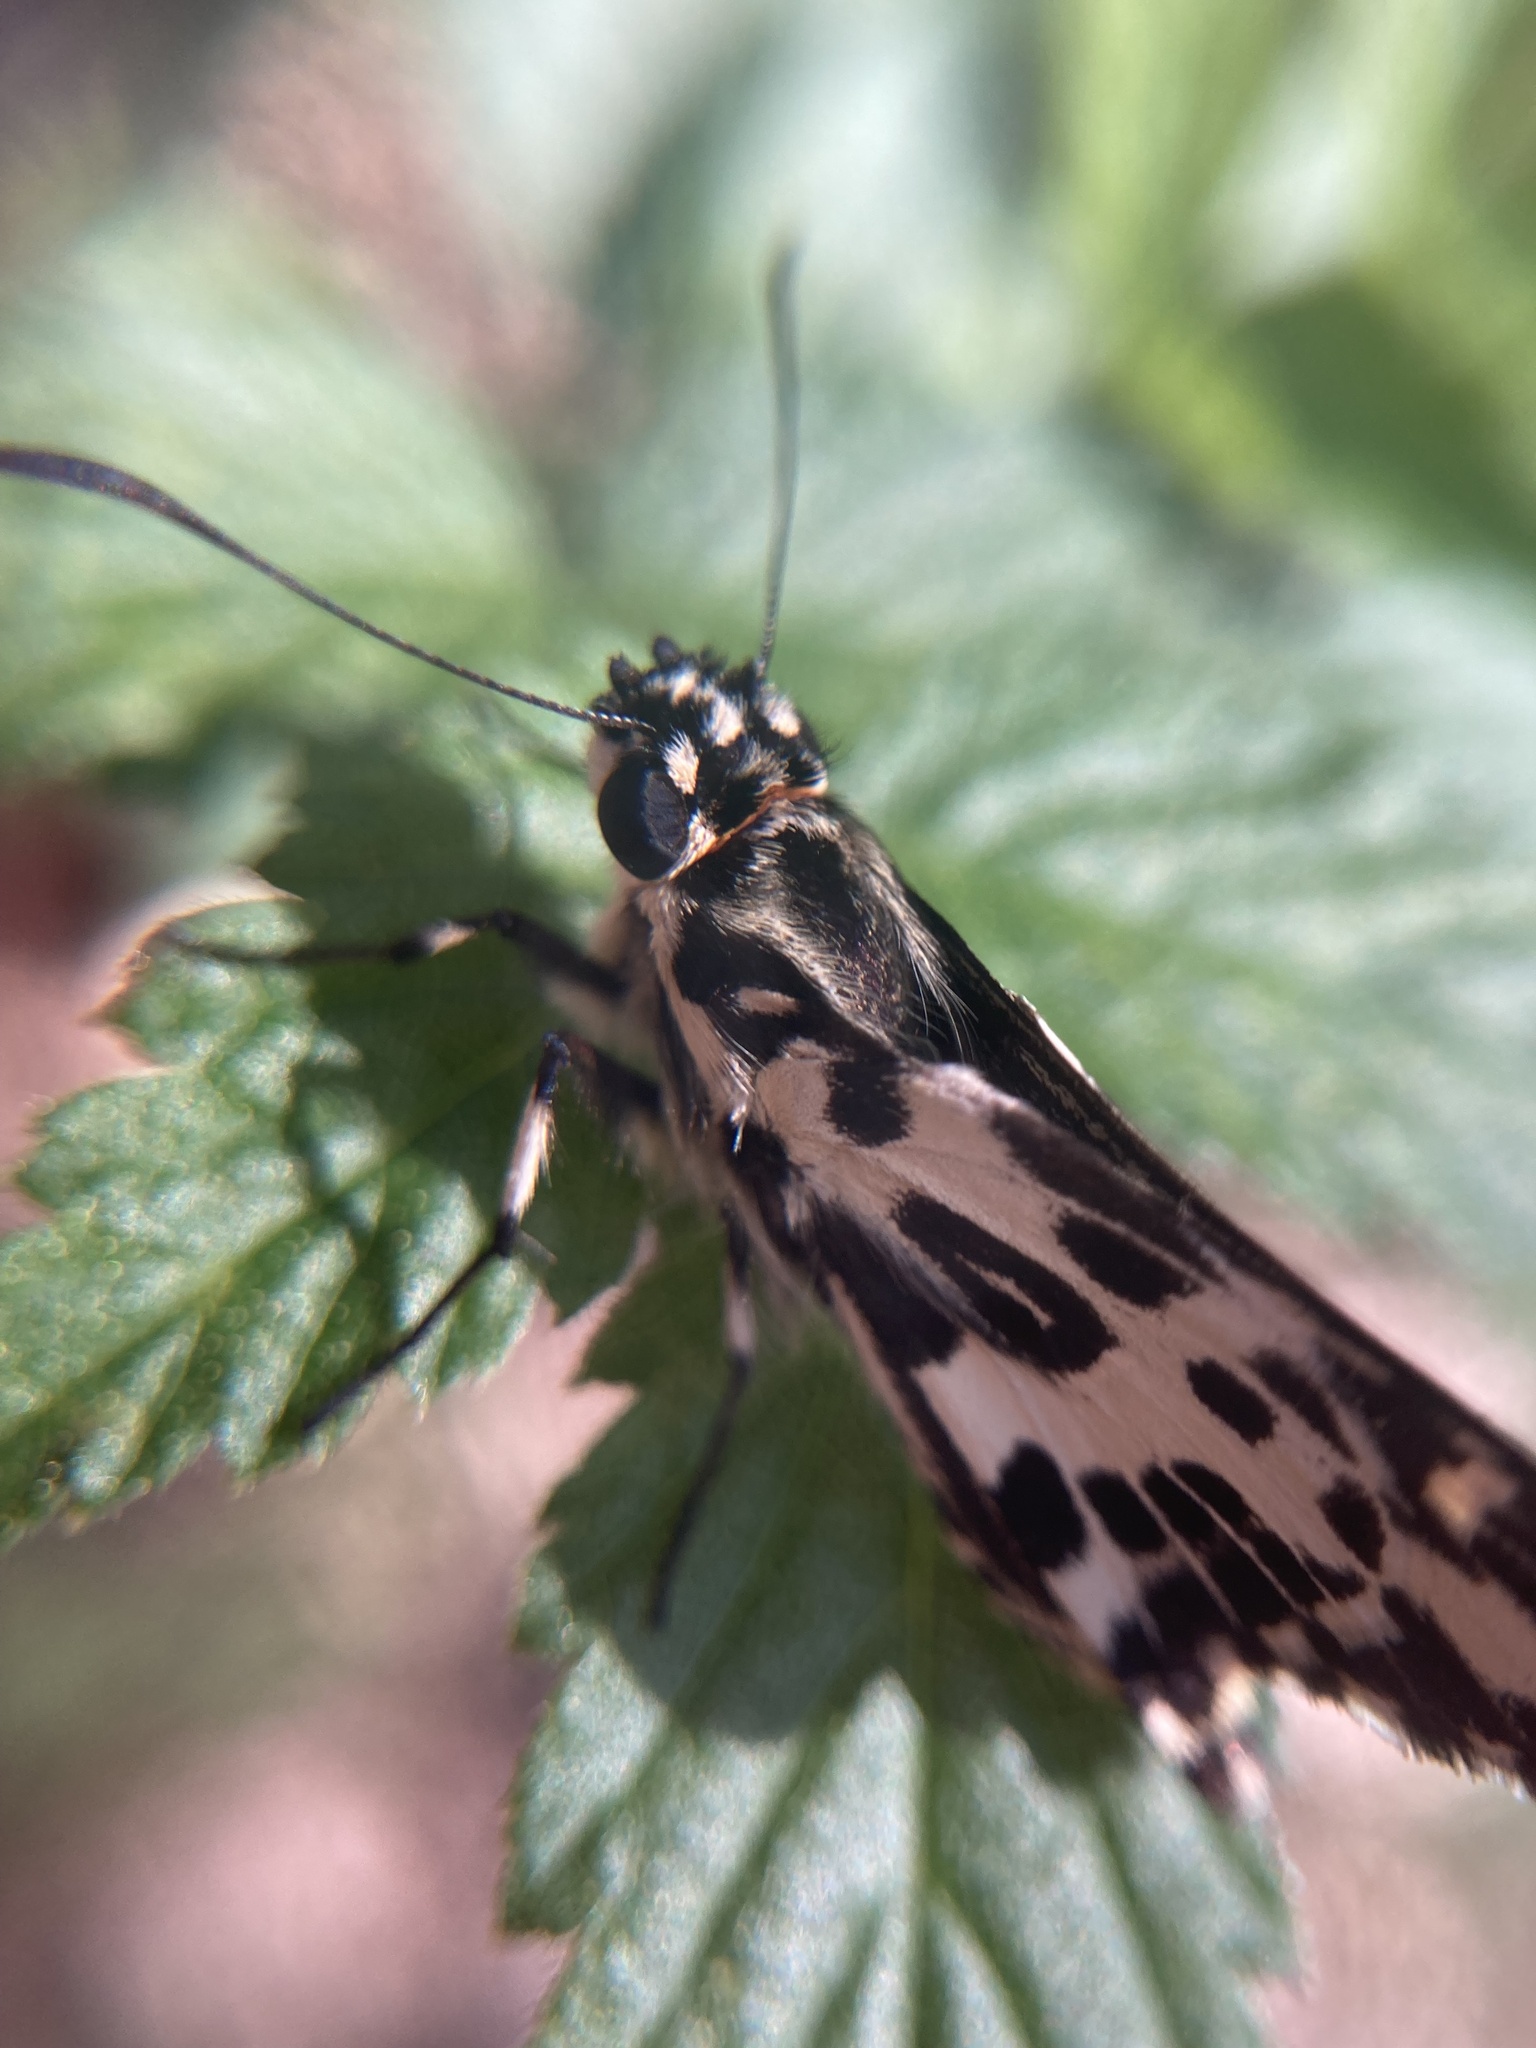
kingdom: Animalia
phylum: Arthropoda
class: Insecta
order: Lepidoptera
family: Hesperiidae
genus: Hesperilla
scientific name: Hesperilla ornata
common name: Spotted sedge-skipper
